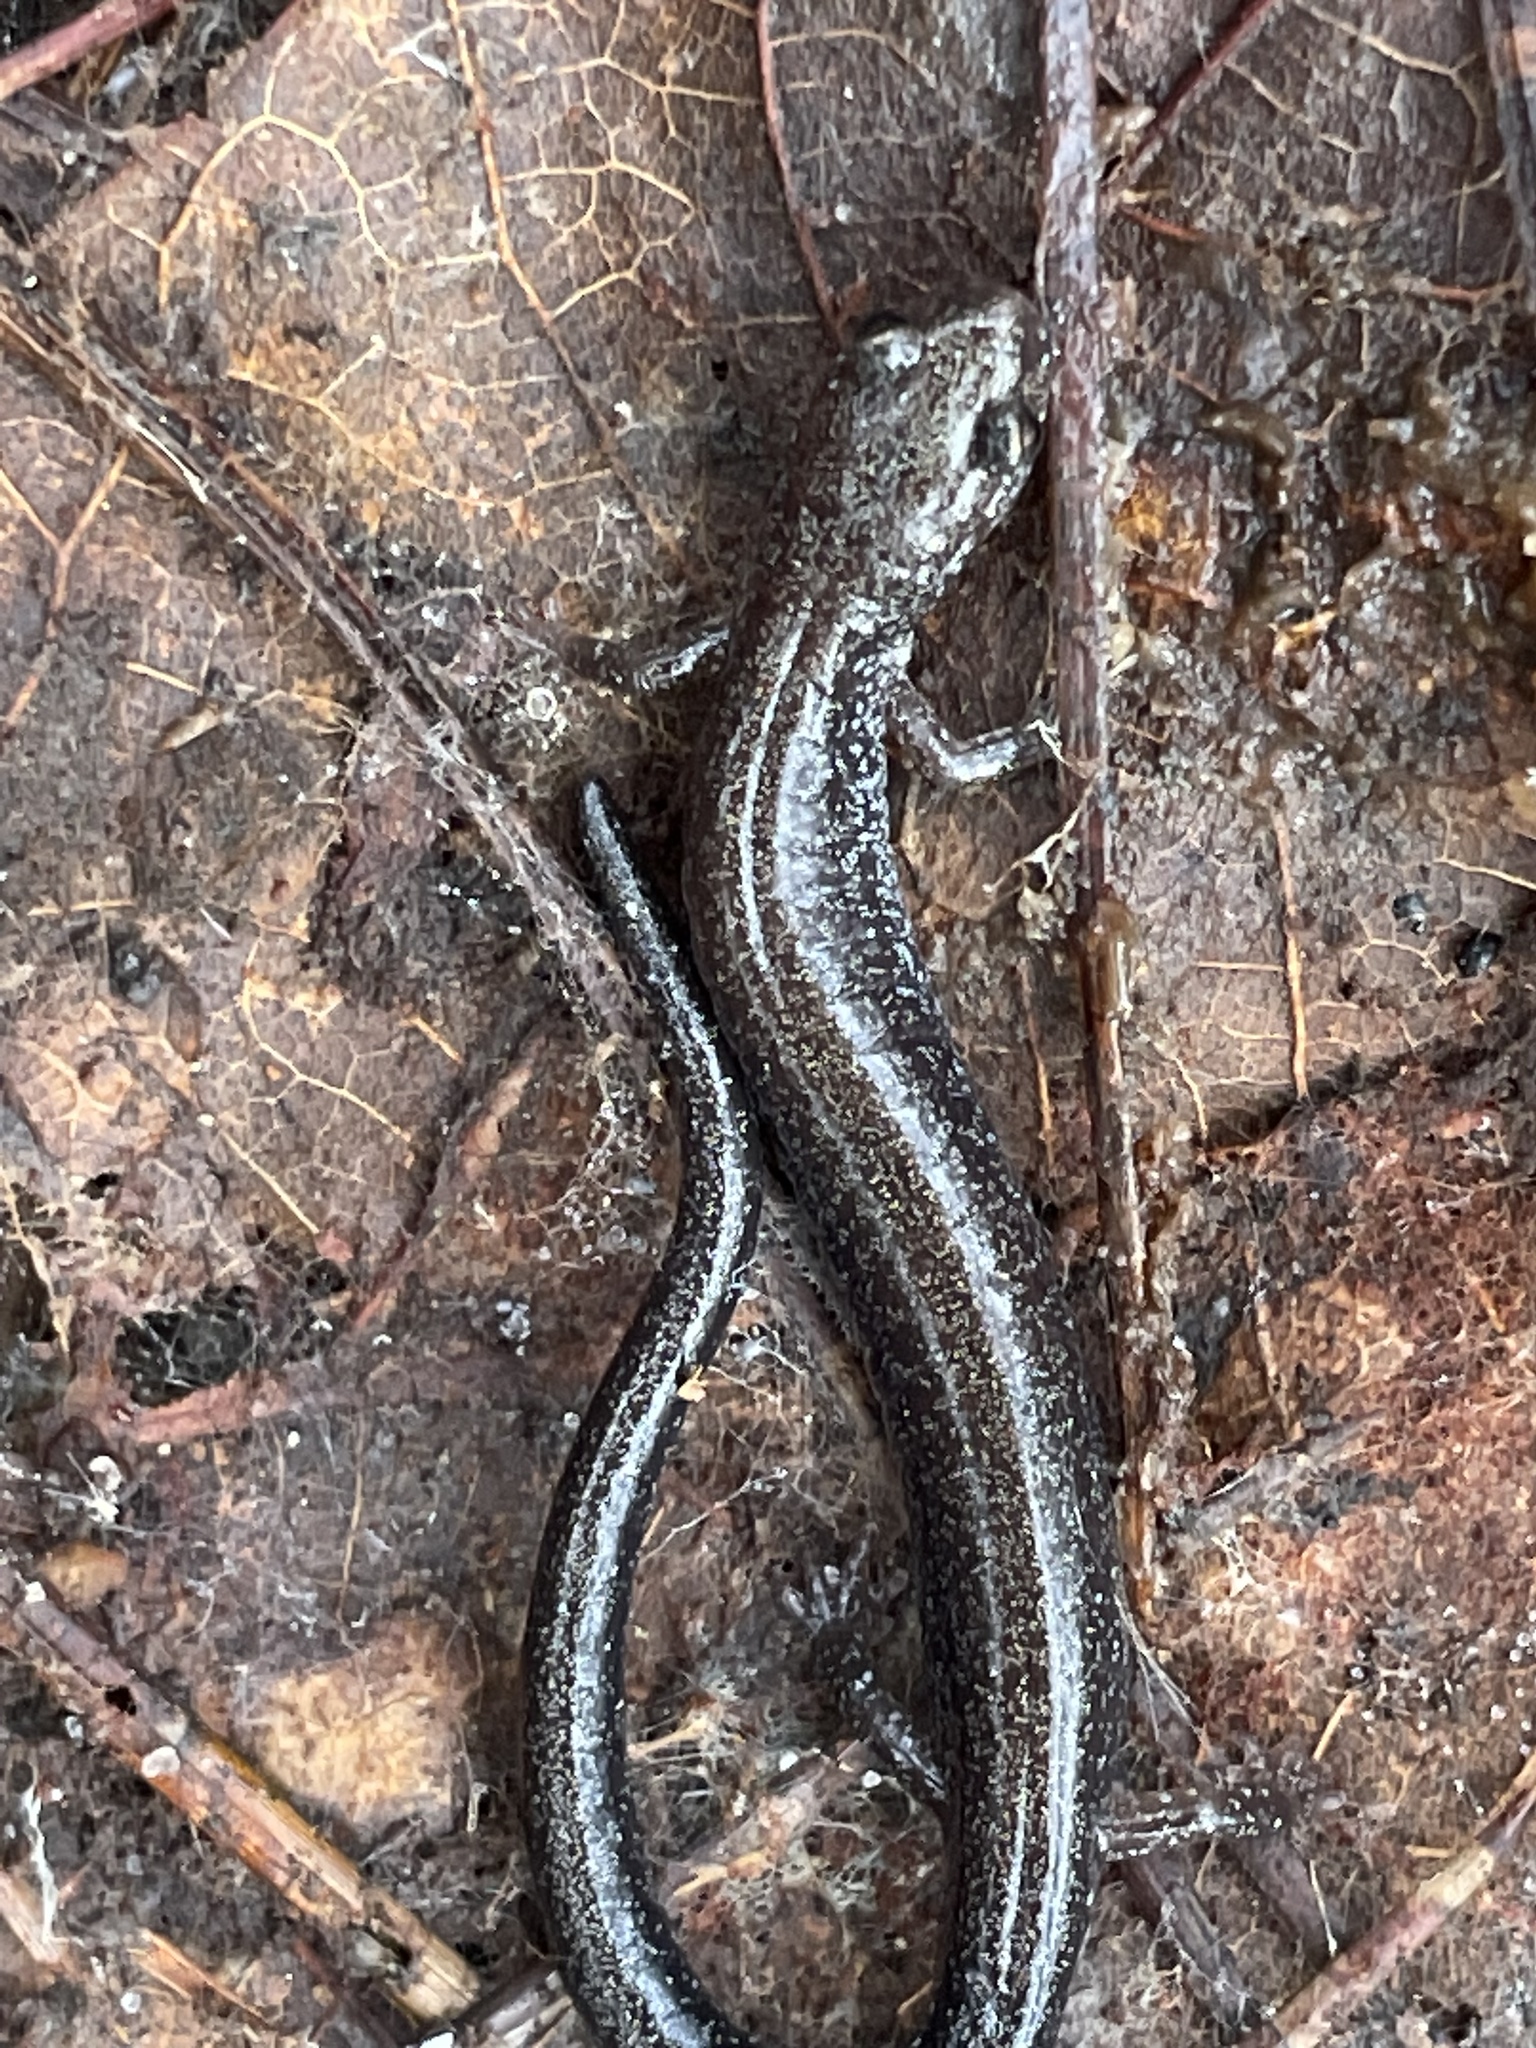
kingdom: Animalia
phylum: Chordata
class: Amphibia
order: Caudata
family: Plethodontidae
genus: Plethodon
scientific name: Plethodon cinereus
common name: Redback salamander
